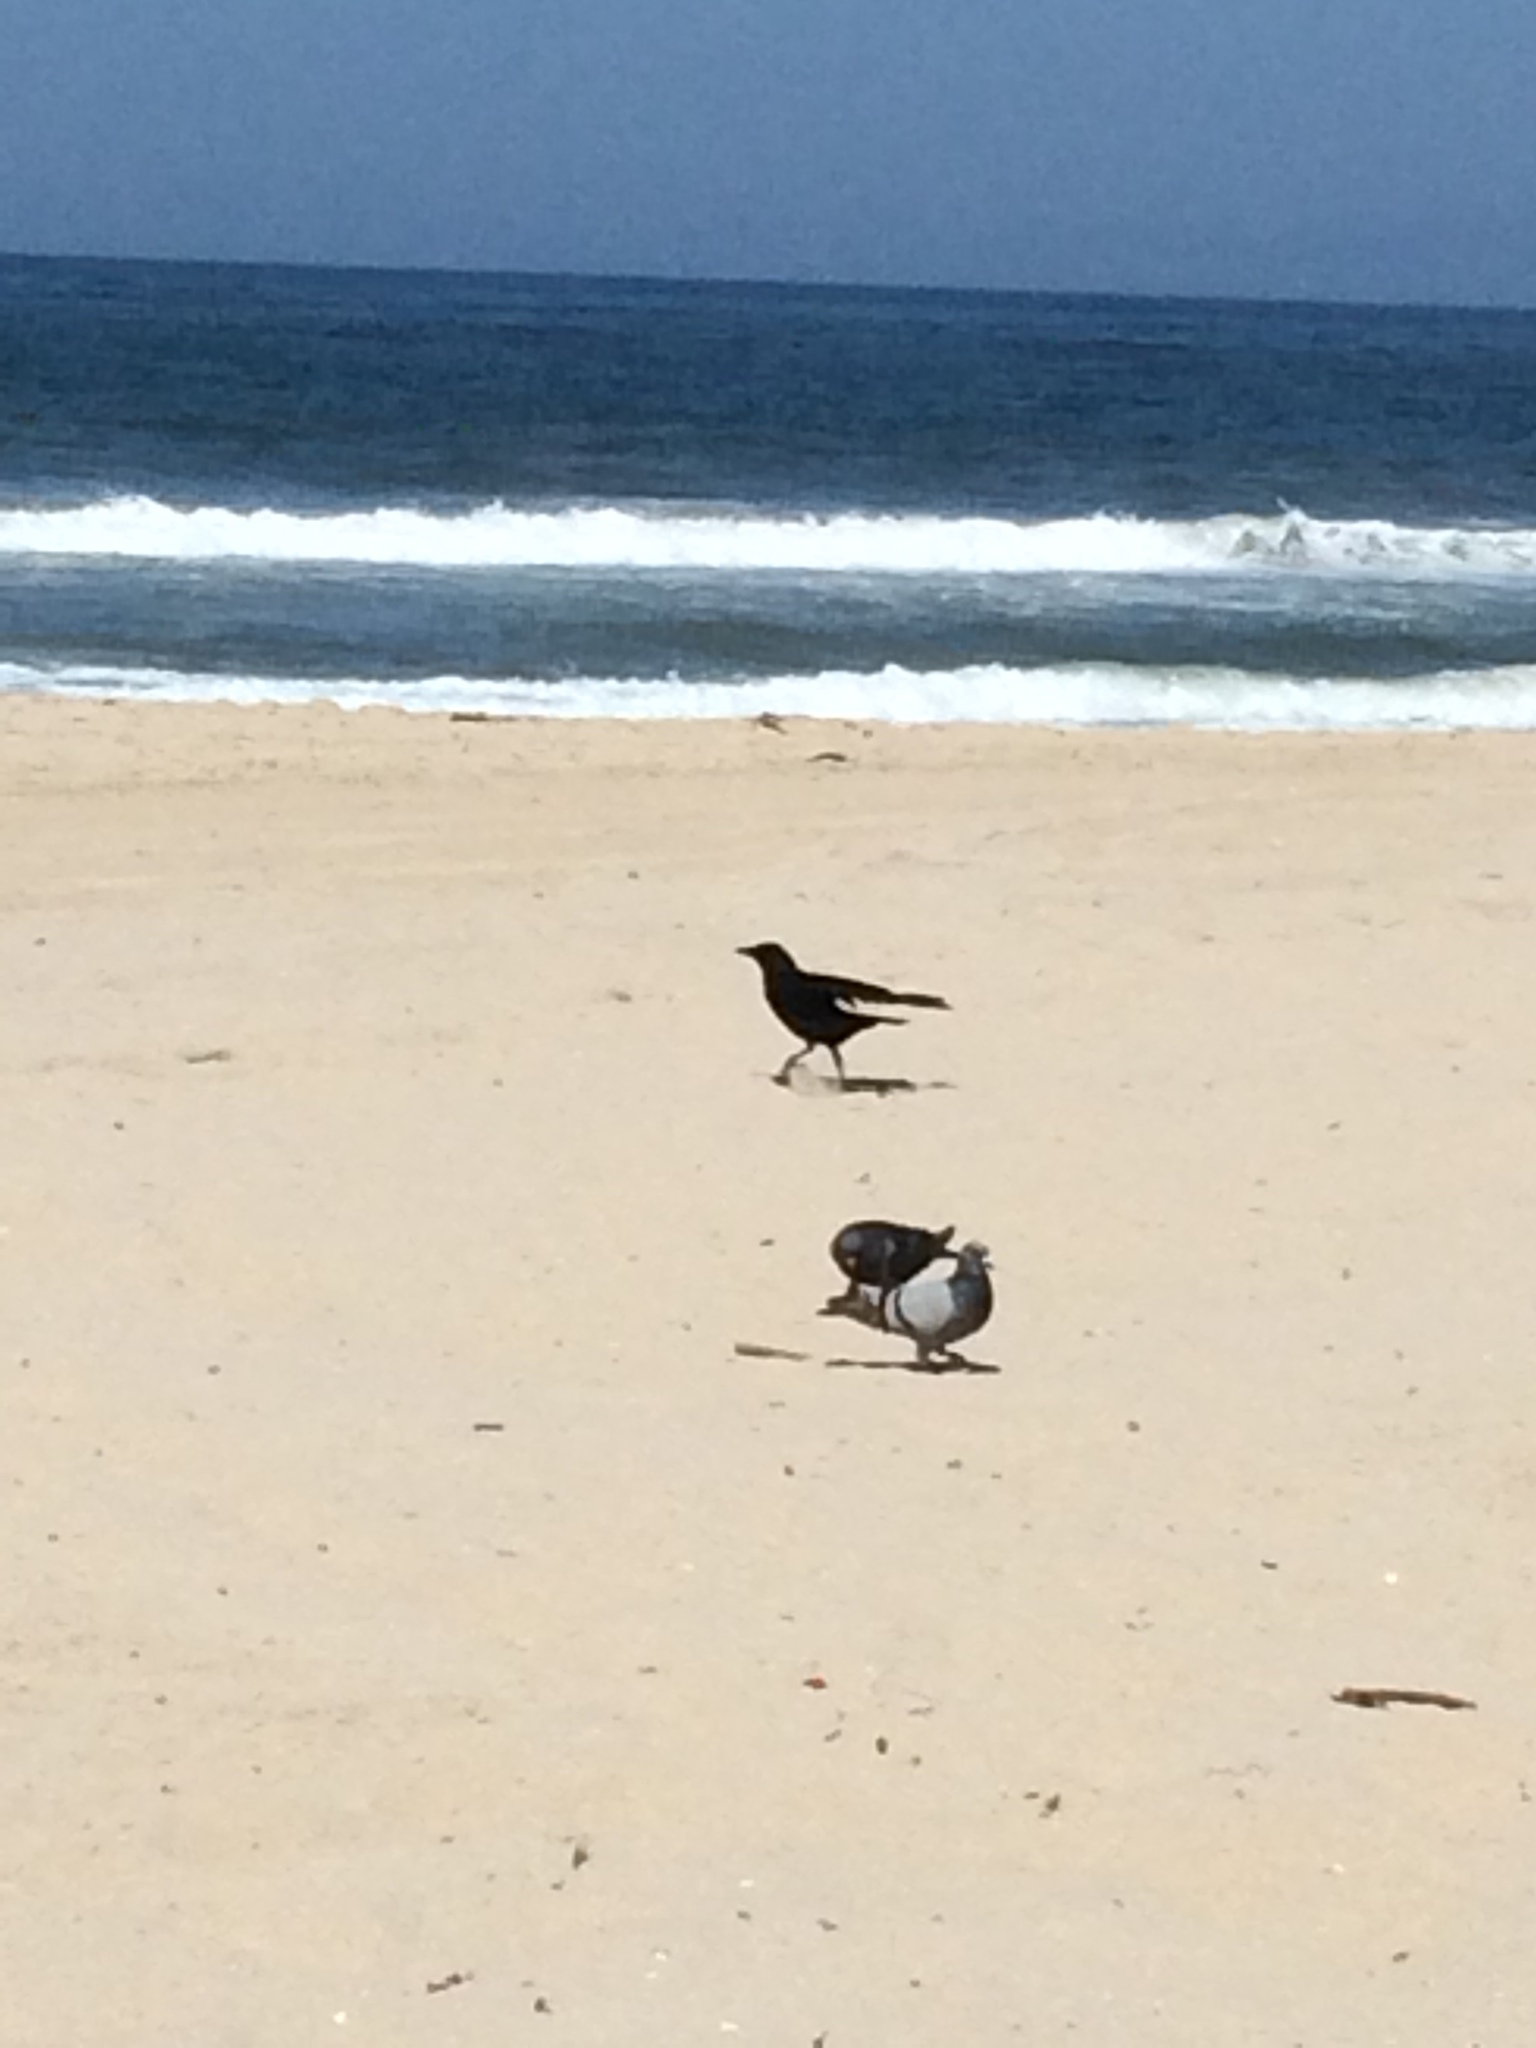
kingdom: Animalia
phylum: Chordata
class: Aves
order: Passeriformes
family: Corvidae
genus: Corvus
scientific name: Corvus brachyrhynchos
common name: American crow
